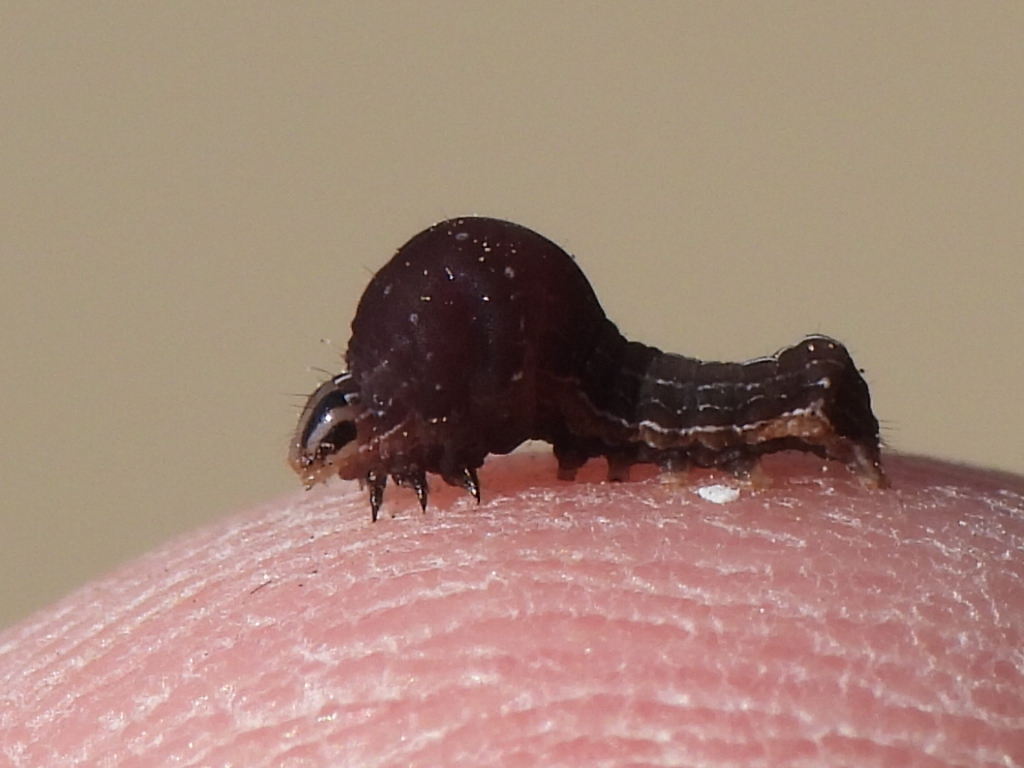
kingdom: Animalia
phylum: Arthropoda
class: Insecta
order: Lepidoptera
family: Noctuidae
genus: Galgula
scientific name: Galgula partita
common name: Wedgeling
